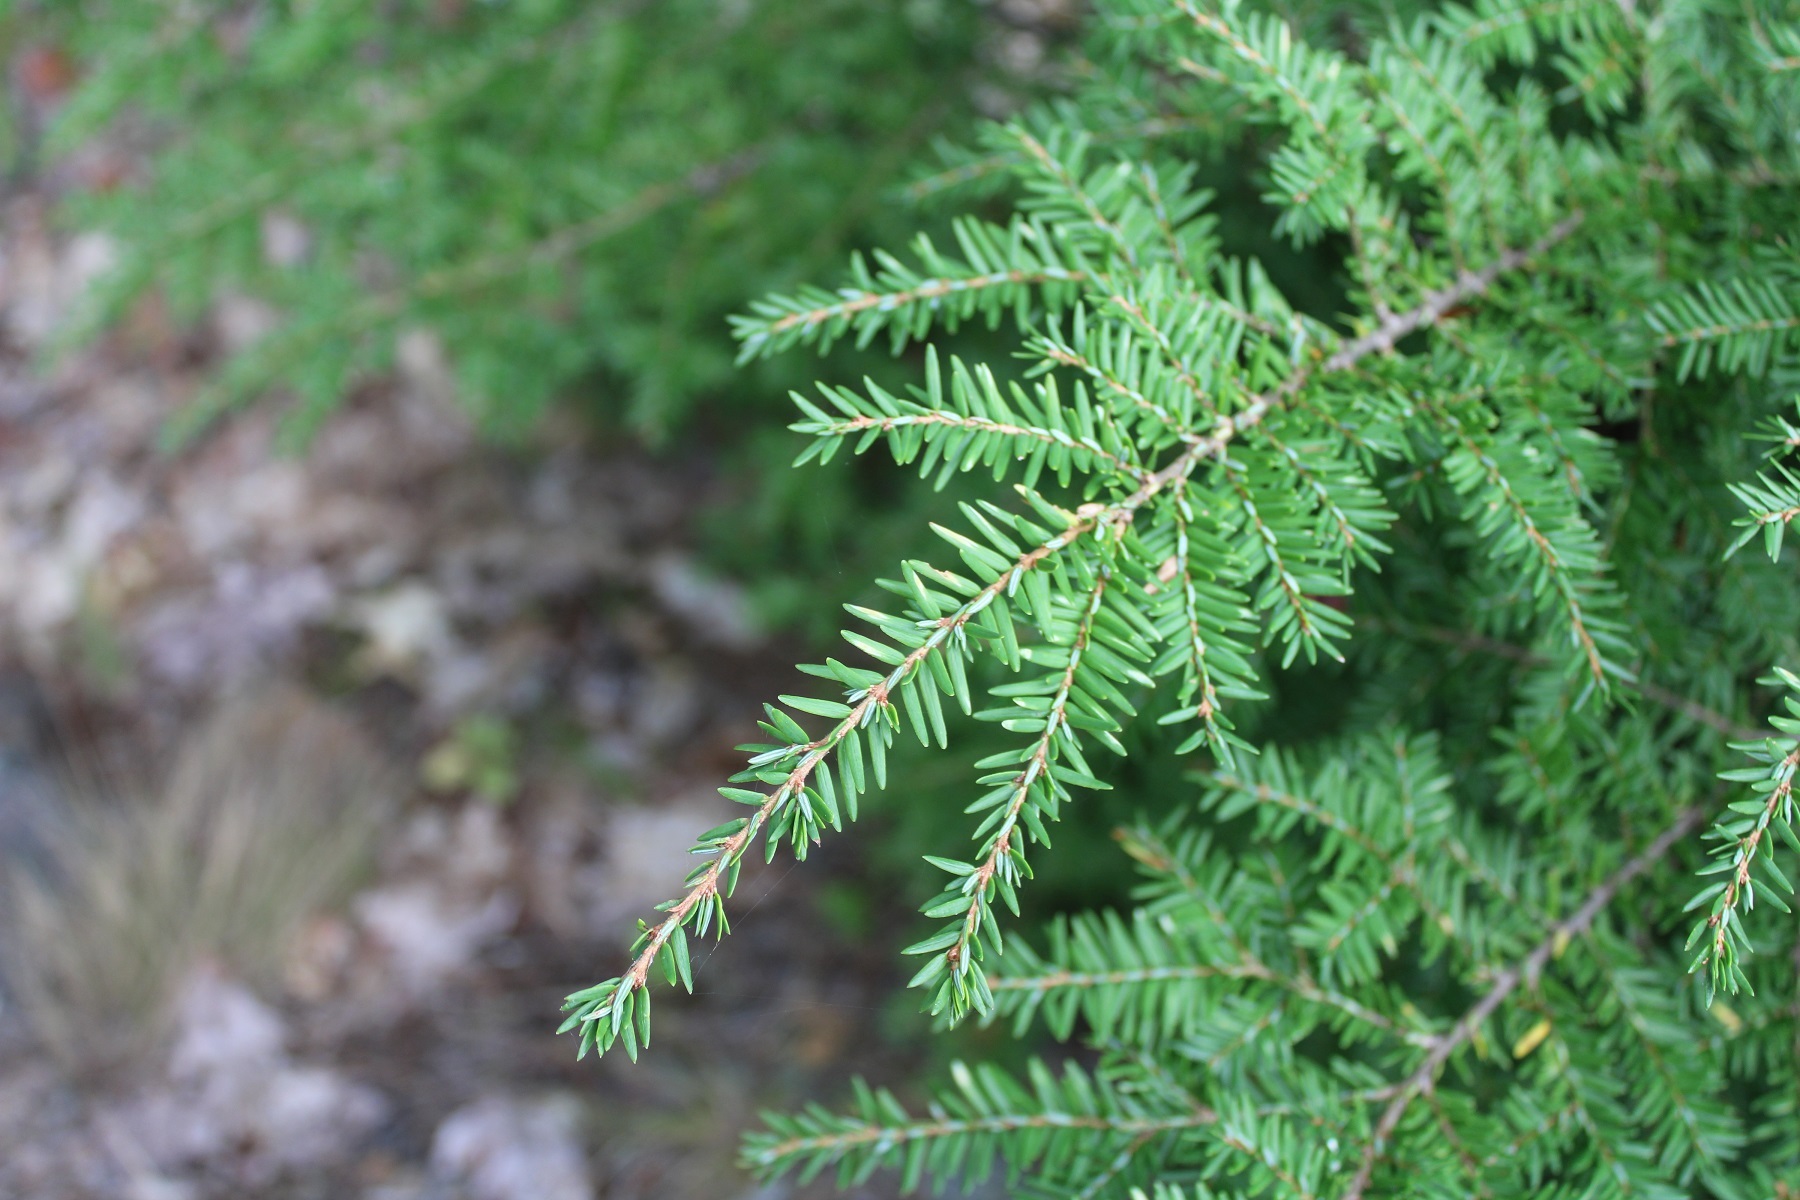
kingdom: Plantae
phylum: Tracheophyta
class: Pinopsida
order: Pinales
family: Pinaceae
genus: Tsuga
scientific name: Tsuga canadensis
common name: Eastern hemlock
